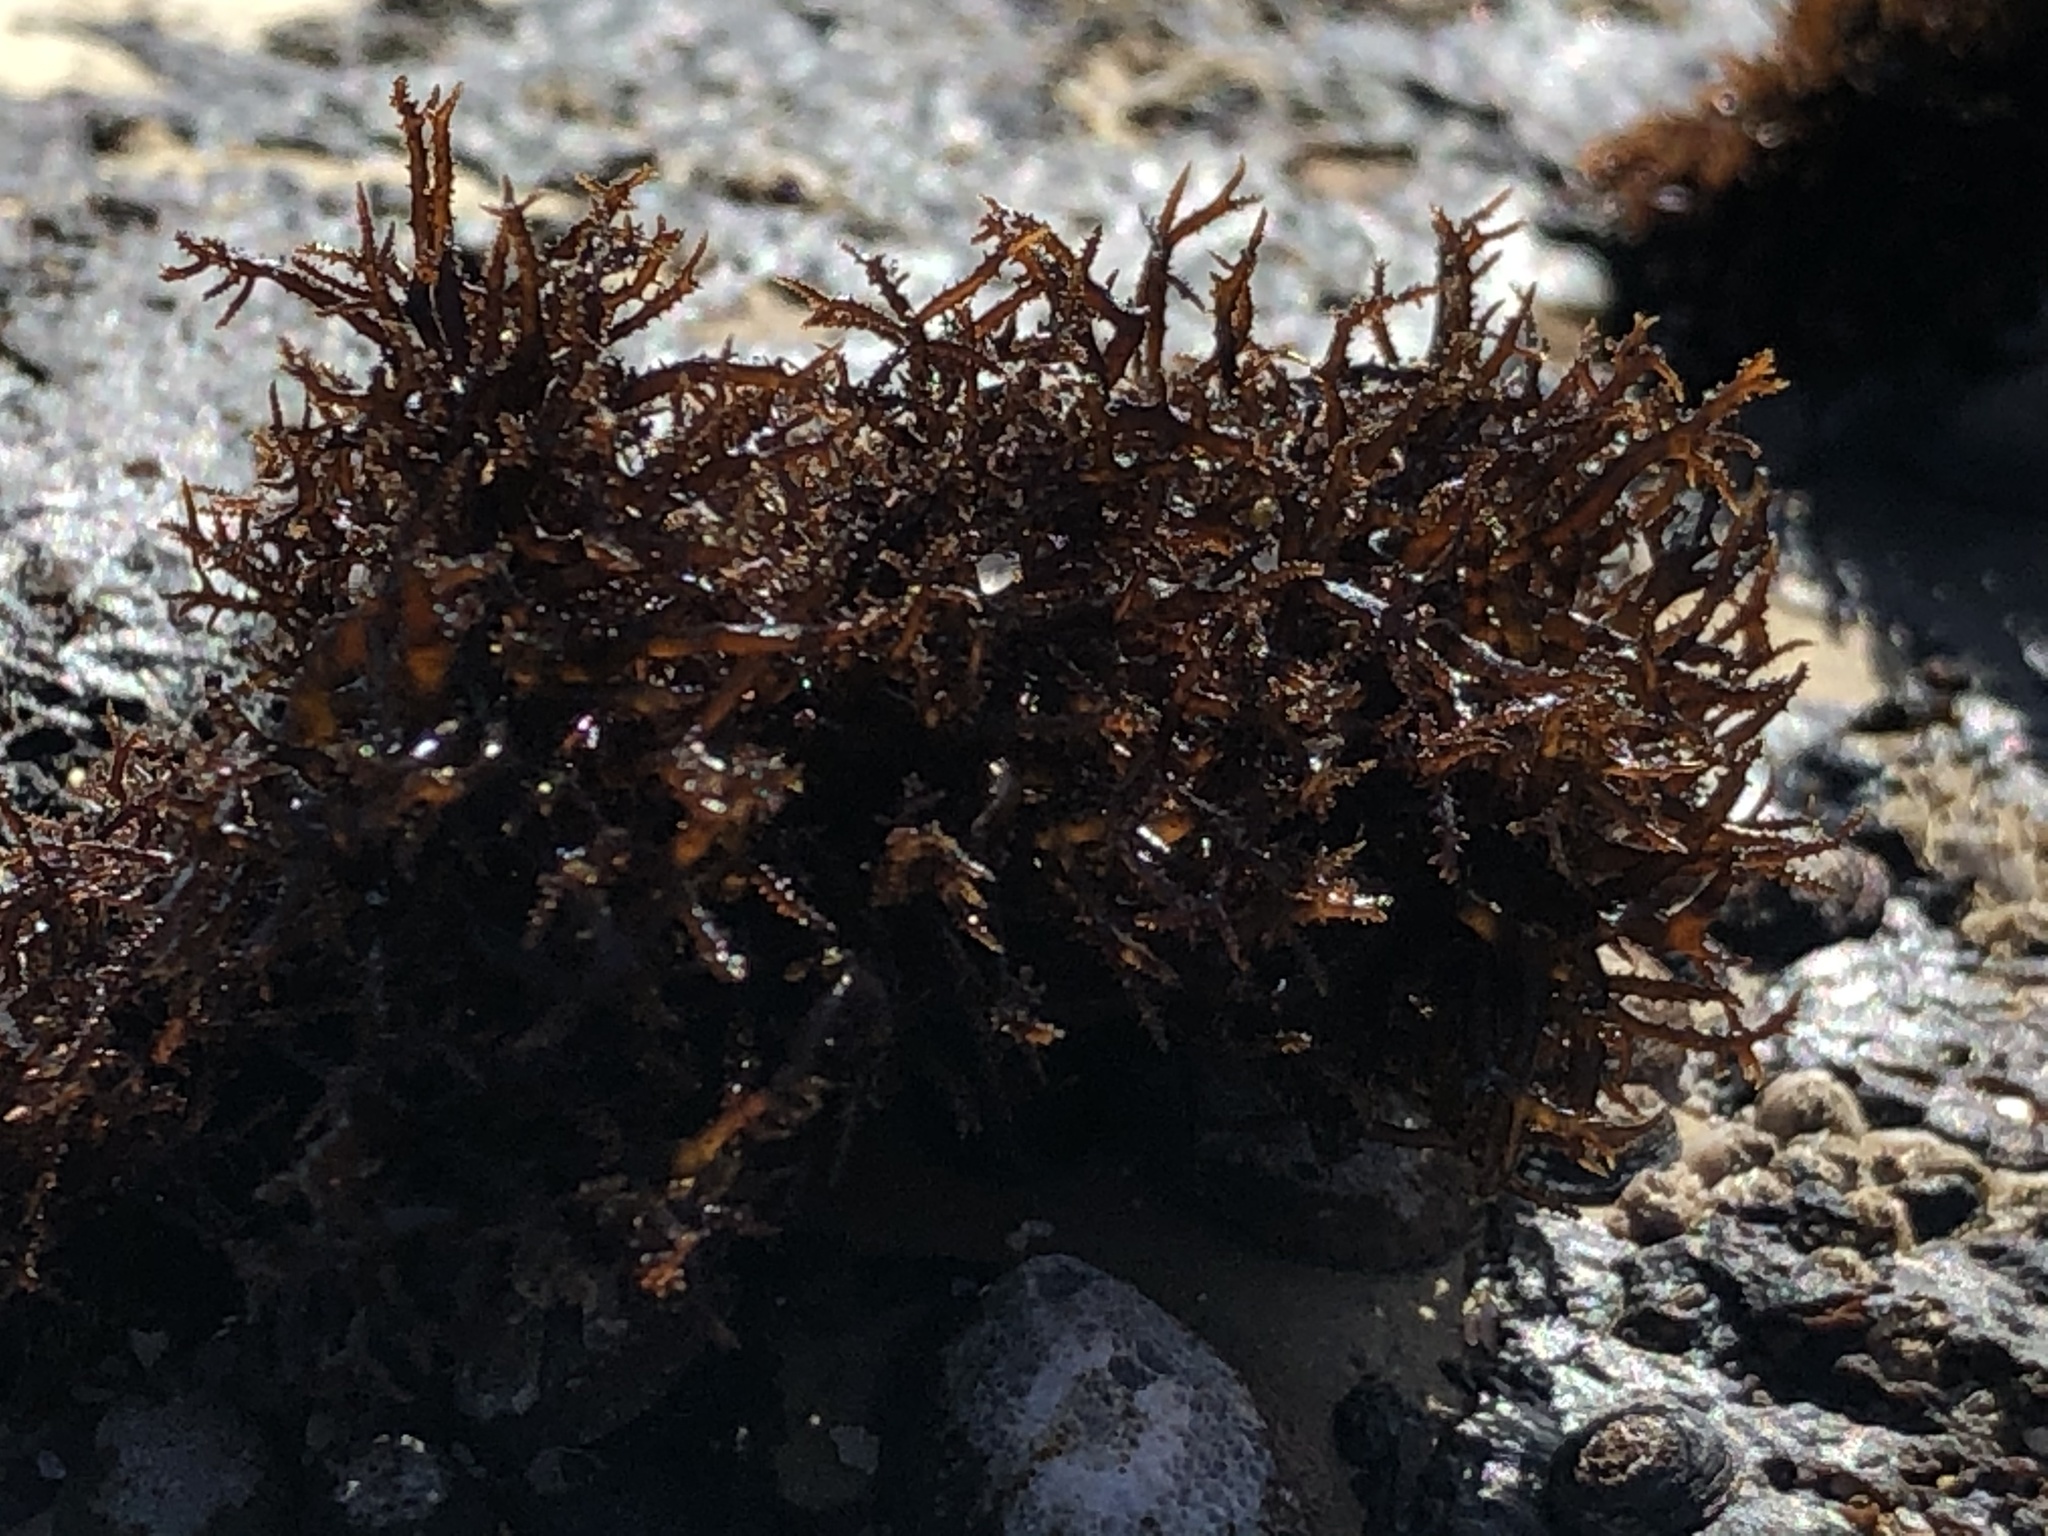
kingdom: Plantae
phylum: Rhodophyta
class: Florideophyceae
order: Gigartinales
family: Endocladiaceae
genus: Endocladia
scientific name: Endocladia muricata
